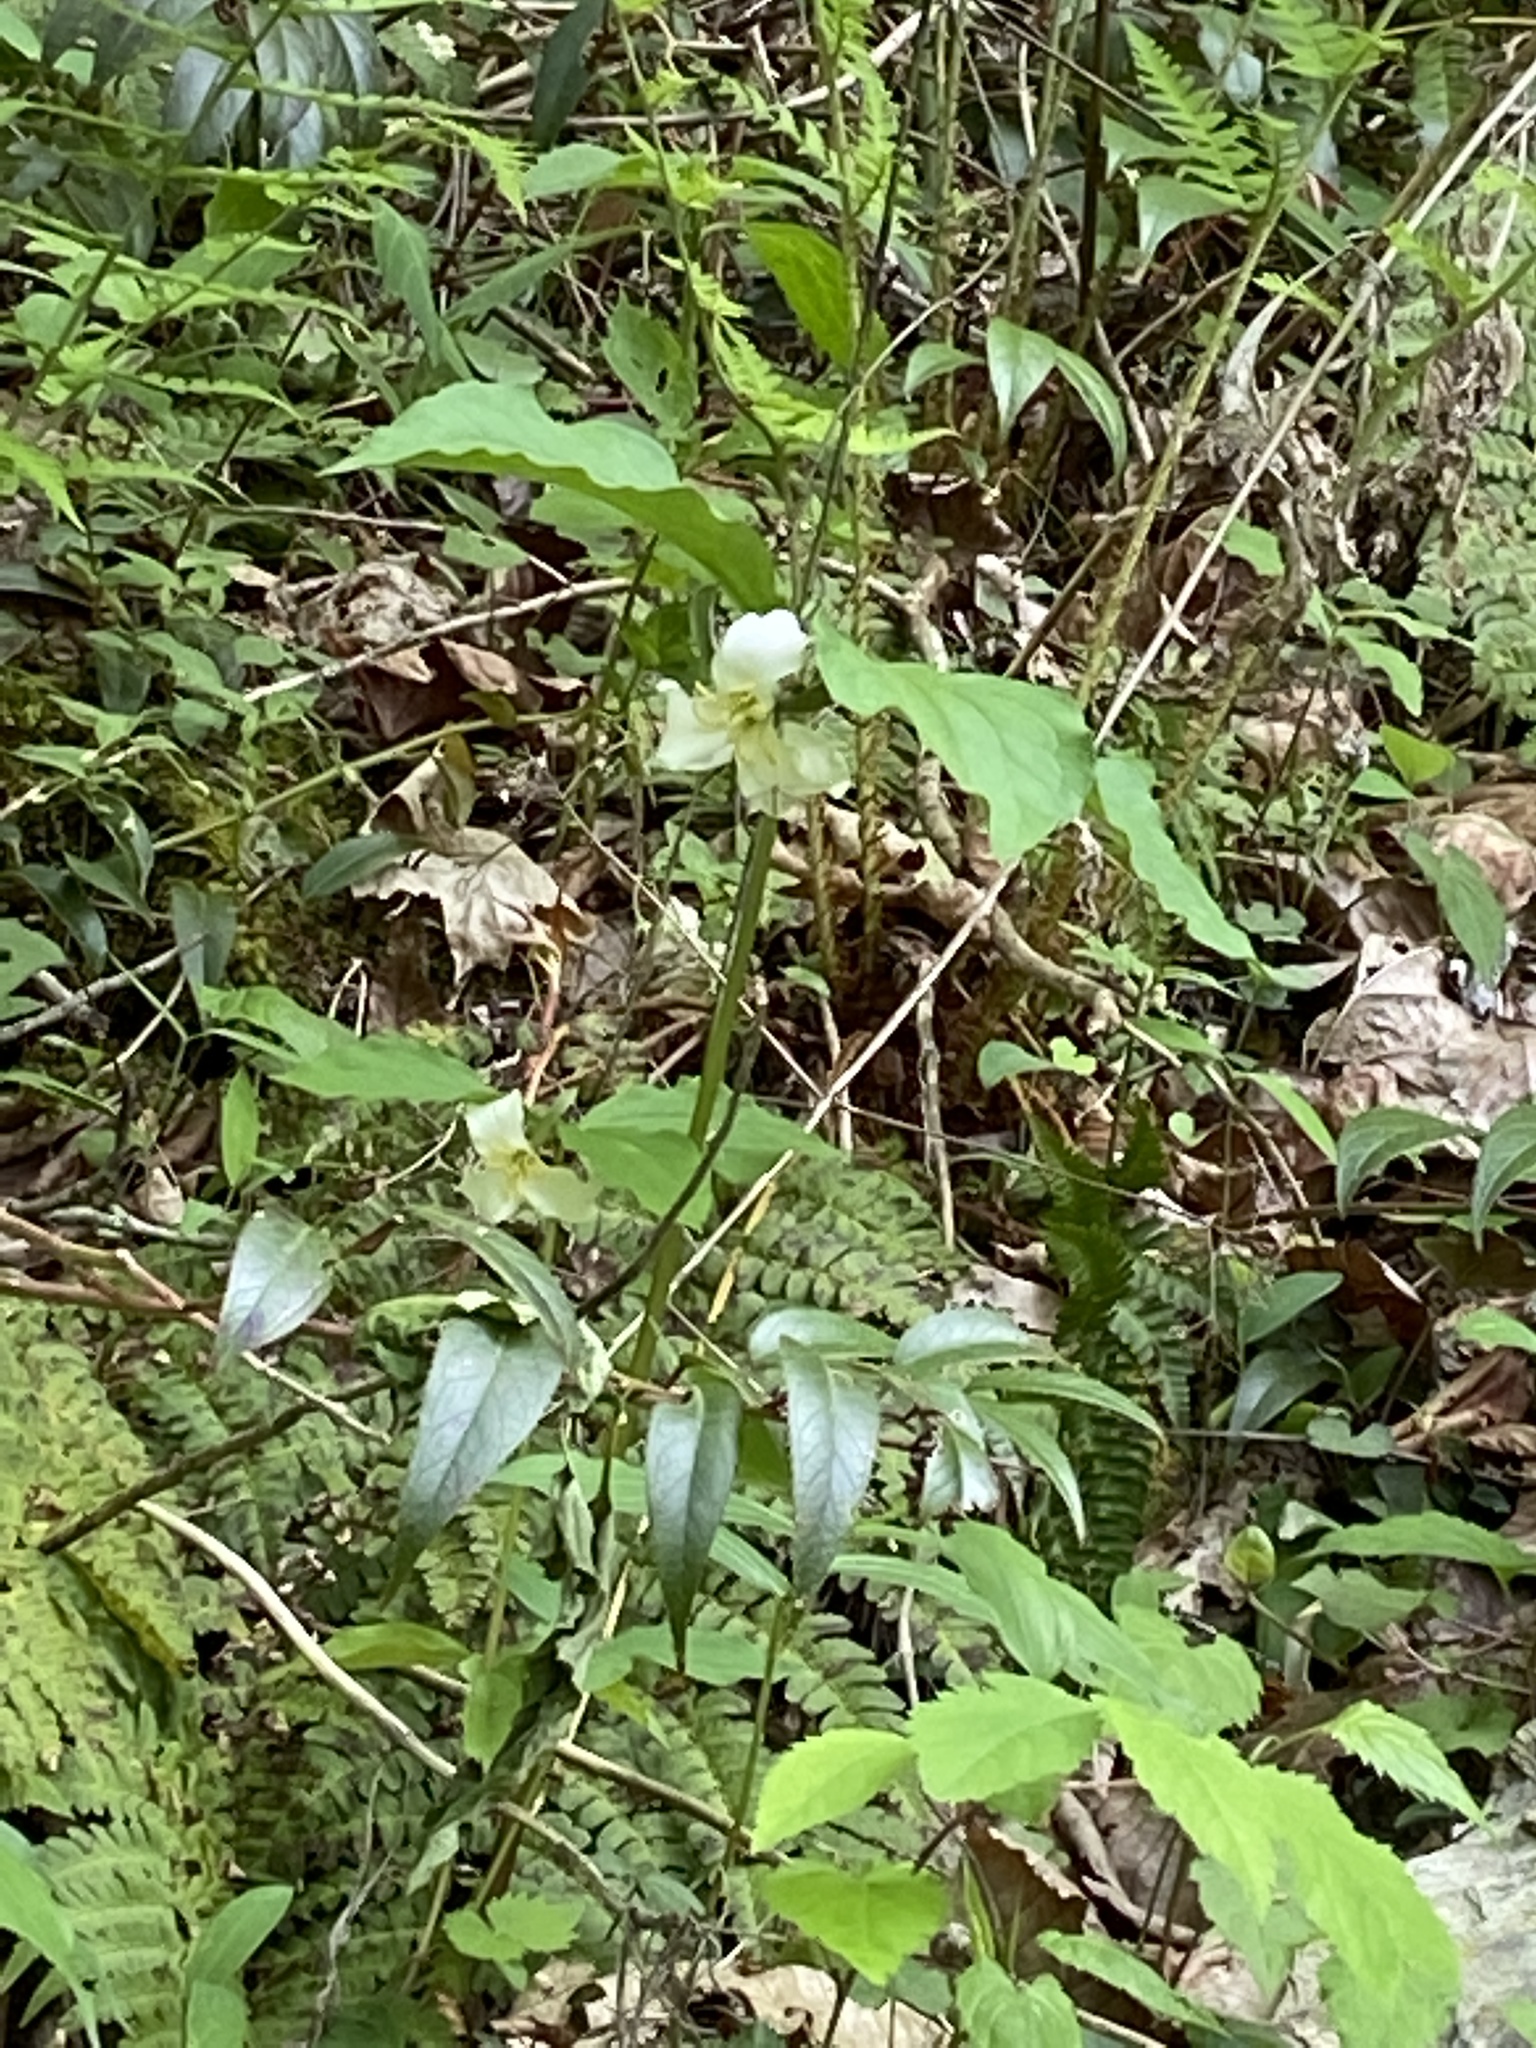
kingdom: Plantae
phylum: Tracheophyta
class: Liliopsida
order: Liliales
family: Melanthiaceae
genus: Trillium
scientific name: Trillium catesbaei
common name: Bashful trillium
